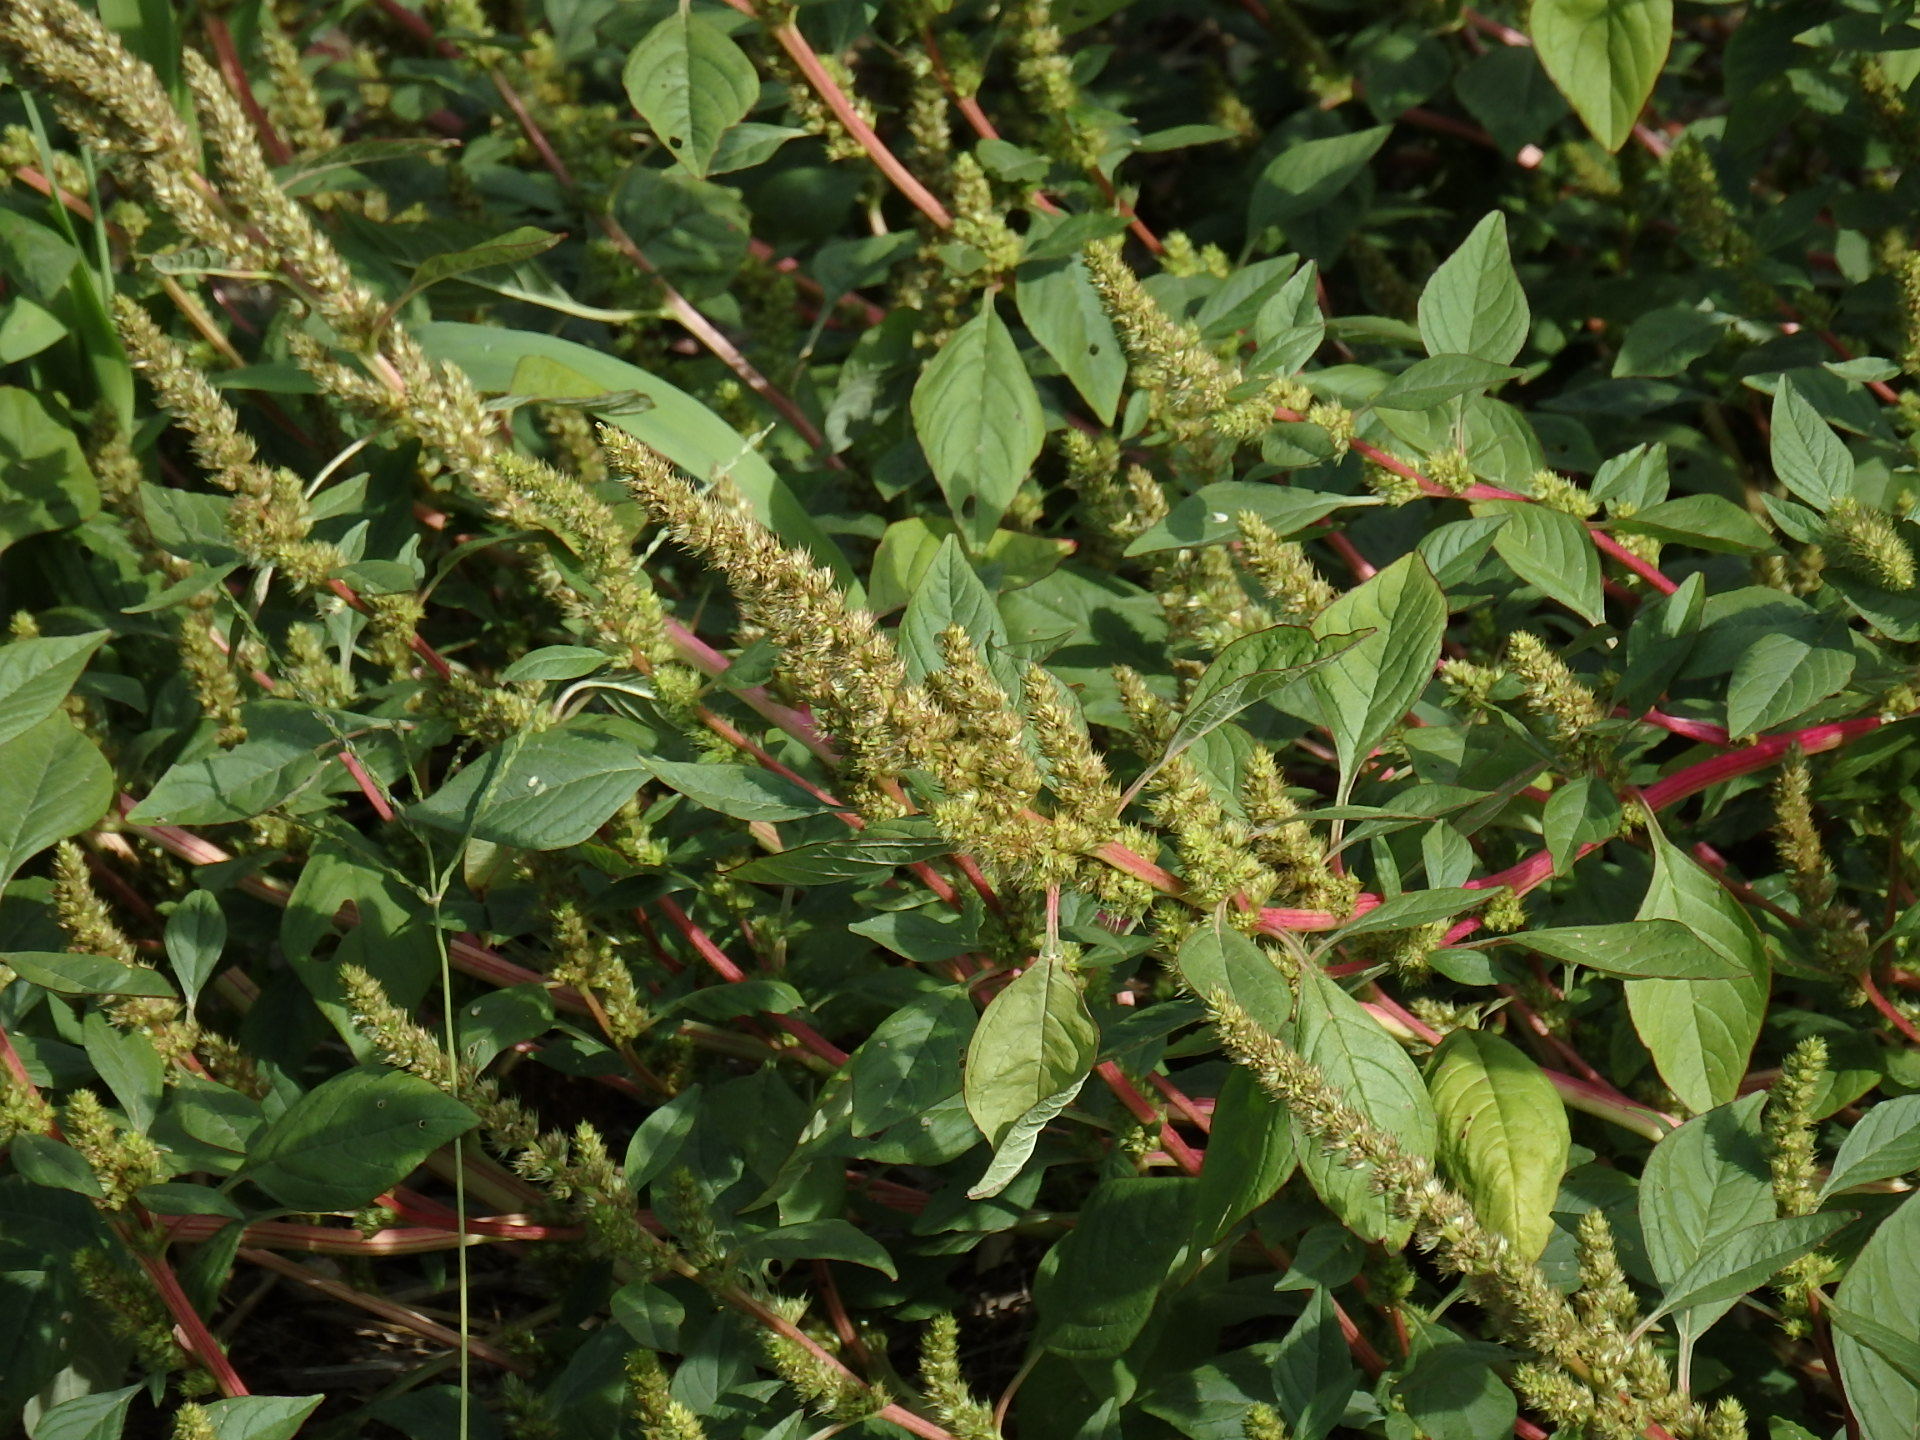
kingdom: Plantae
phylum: Tracheophyta
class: Magnoliopsida
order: Caryophyllales
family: Amaranthaceae
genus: Amaranthus
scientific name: Amaranthus powellii
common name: Powell's amaranth
